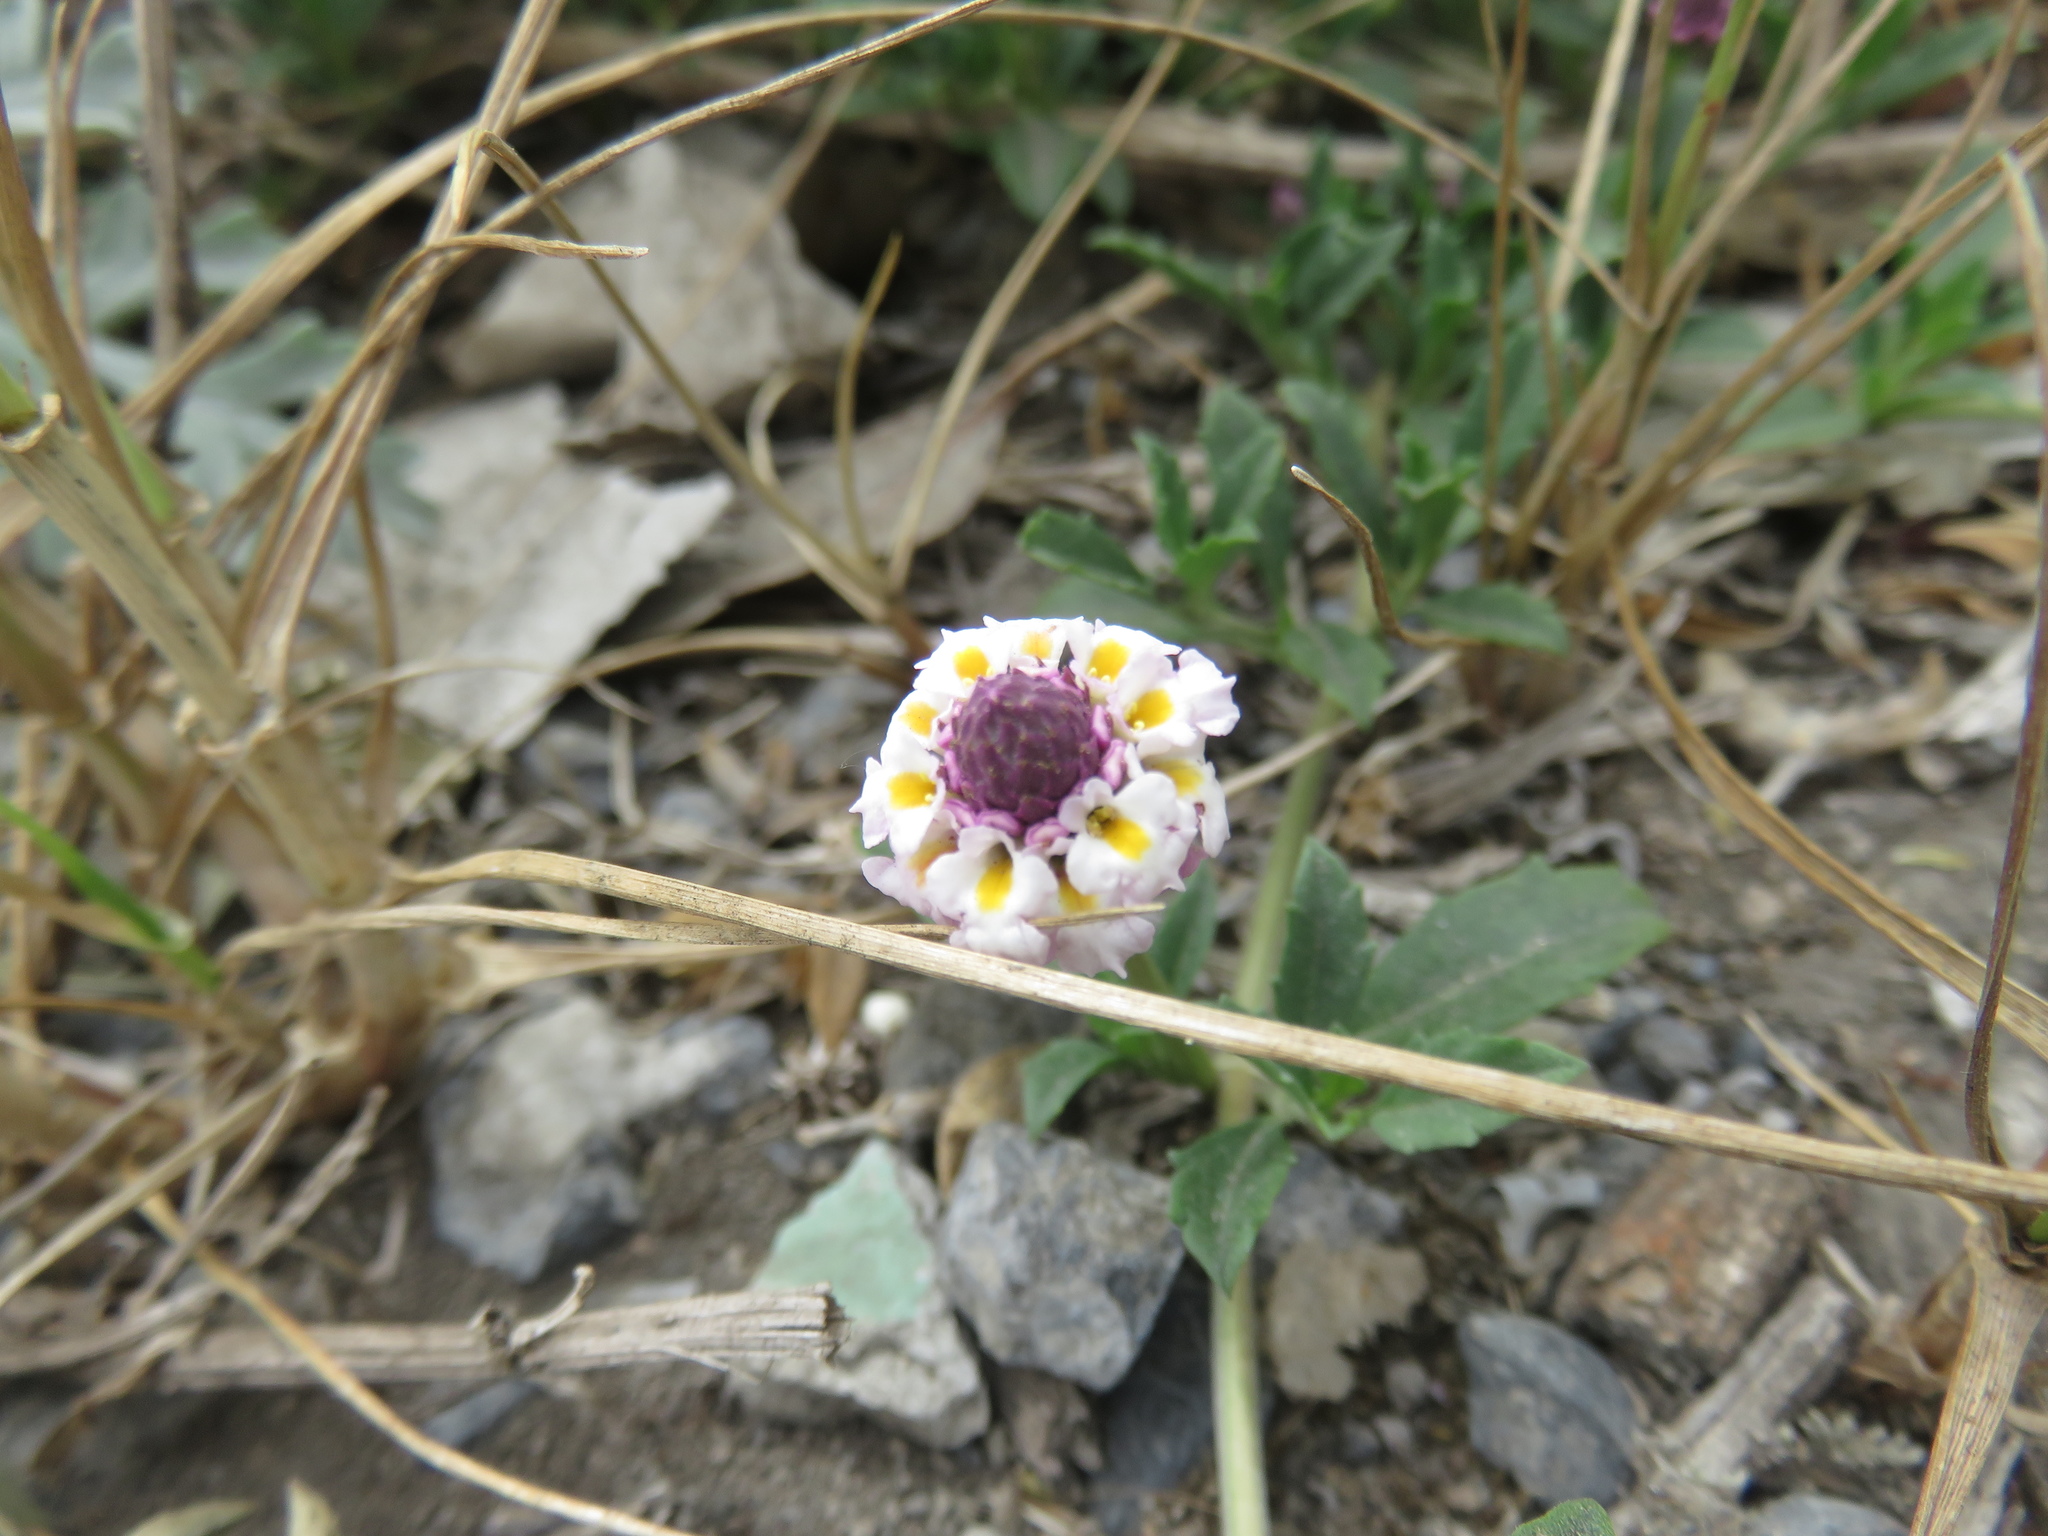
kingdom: Plantae
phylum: Tracheophyta
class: Magnoliopsida
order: Lamiales
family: Verbenaceae
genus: Phyla
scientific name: Phyla nodiflora
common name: Frogfruit
